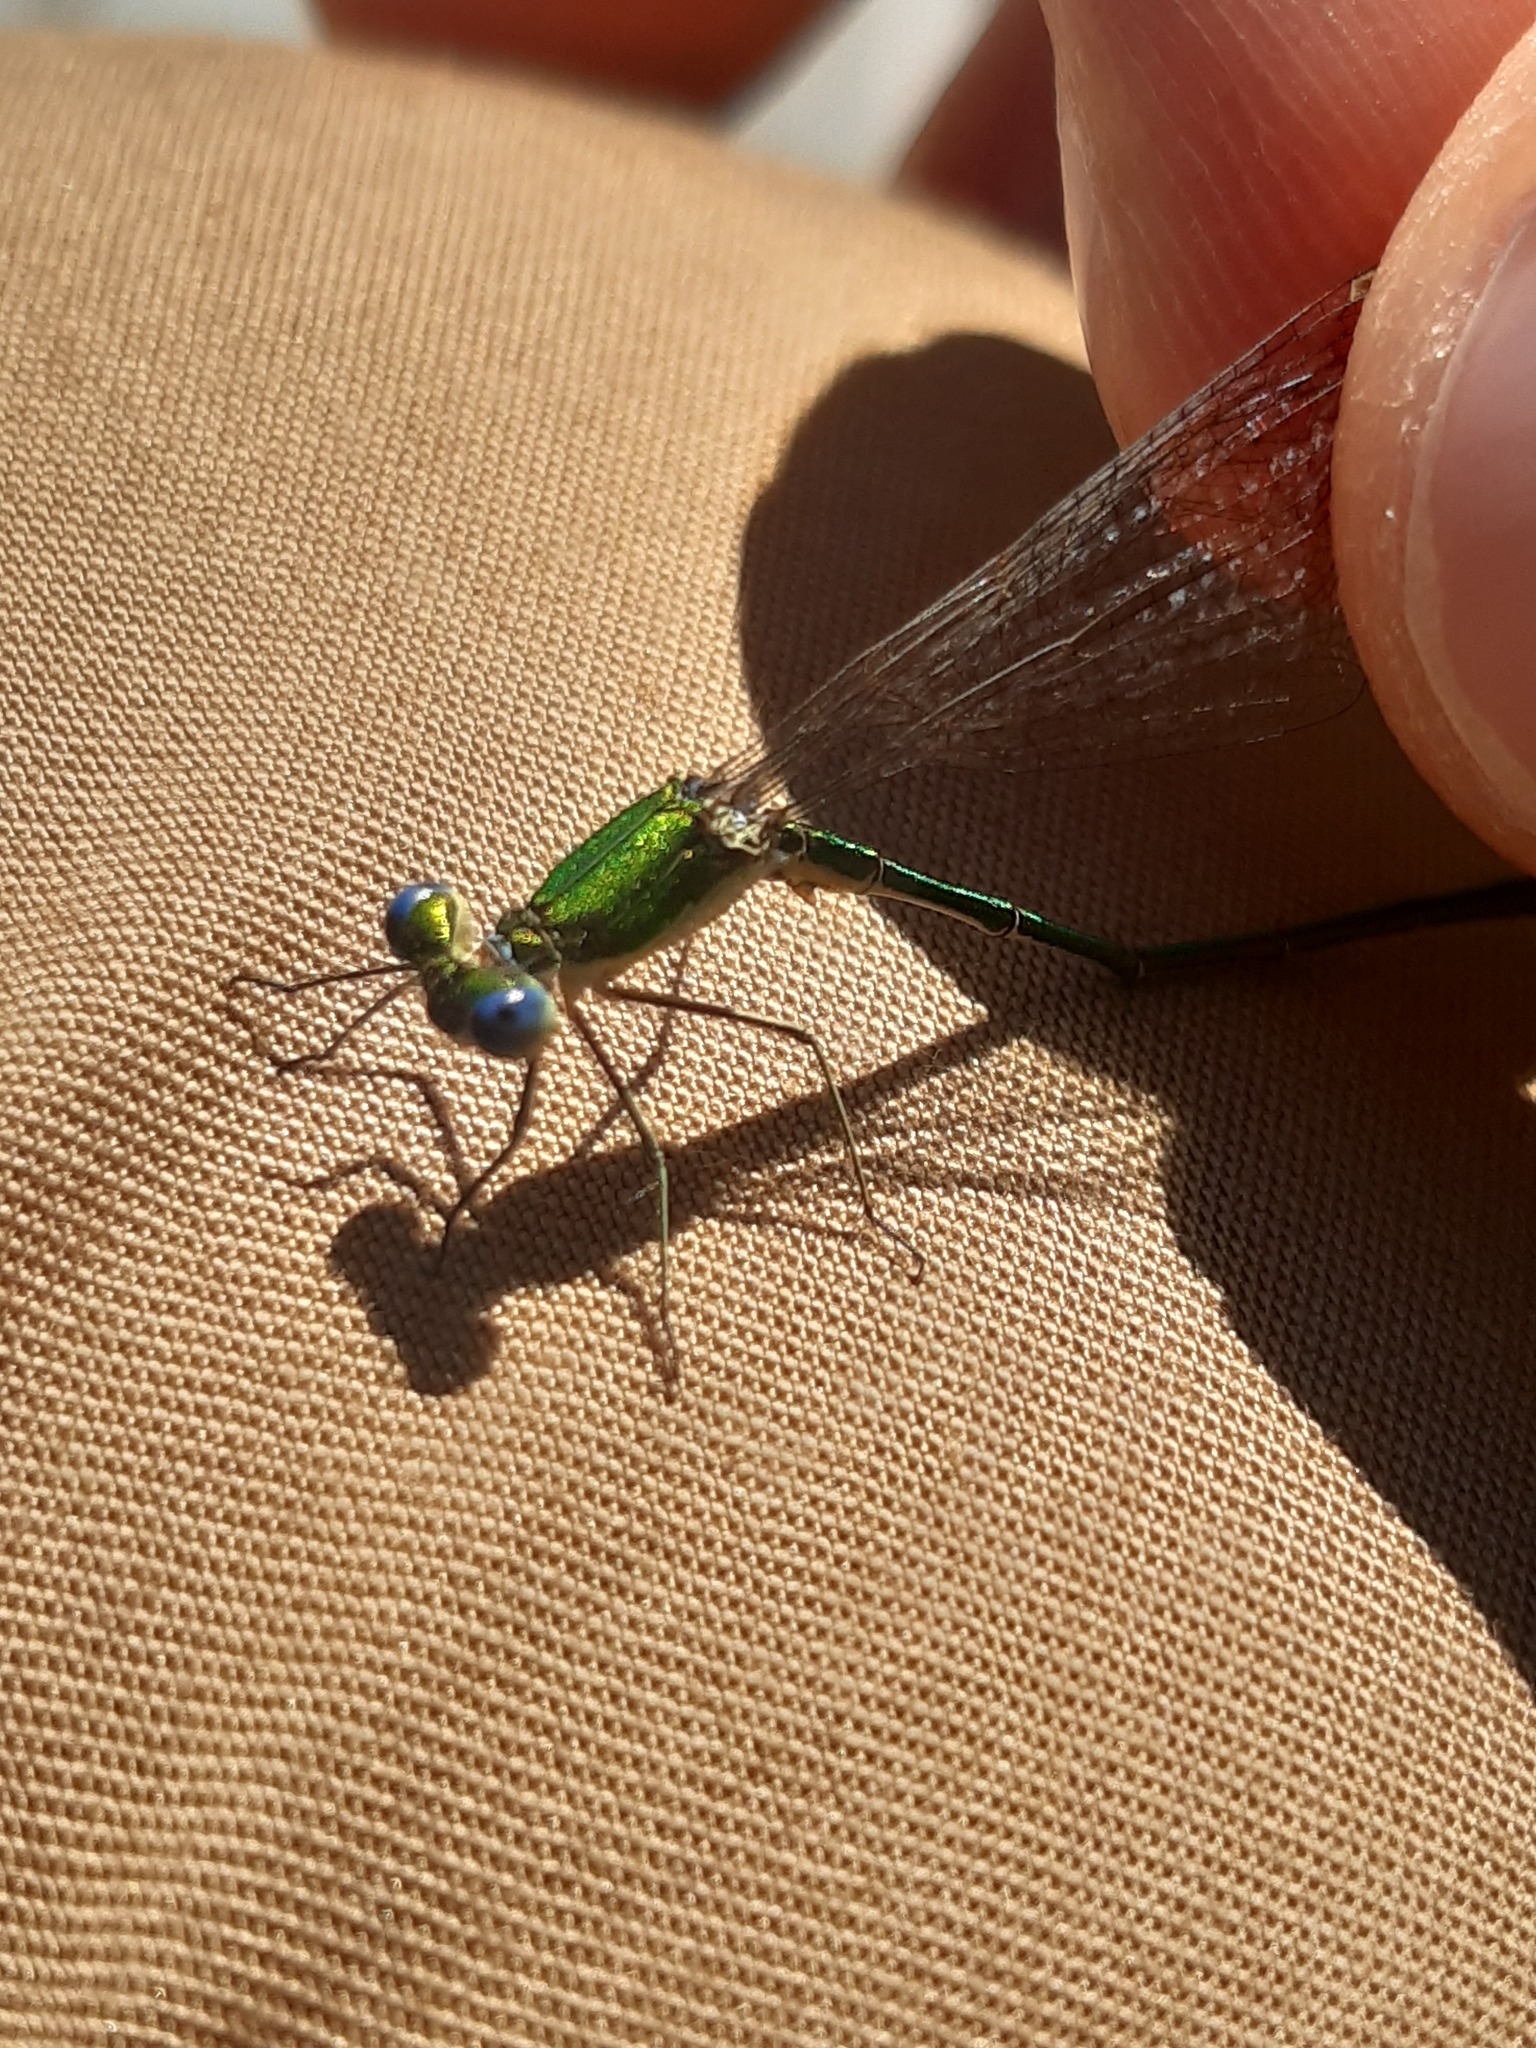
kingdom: Animalia
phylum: Arthropoda
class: Insecta
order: Odonata
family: Lestidae
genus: Lestes
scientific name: Lestes virens
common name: Small emerald spreadwing
